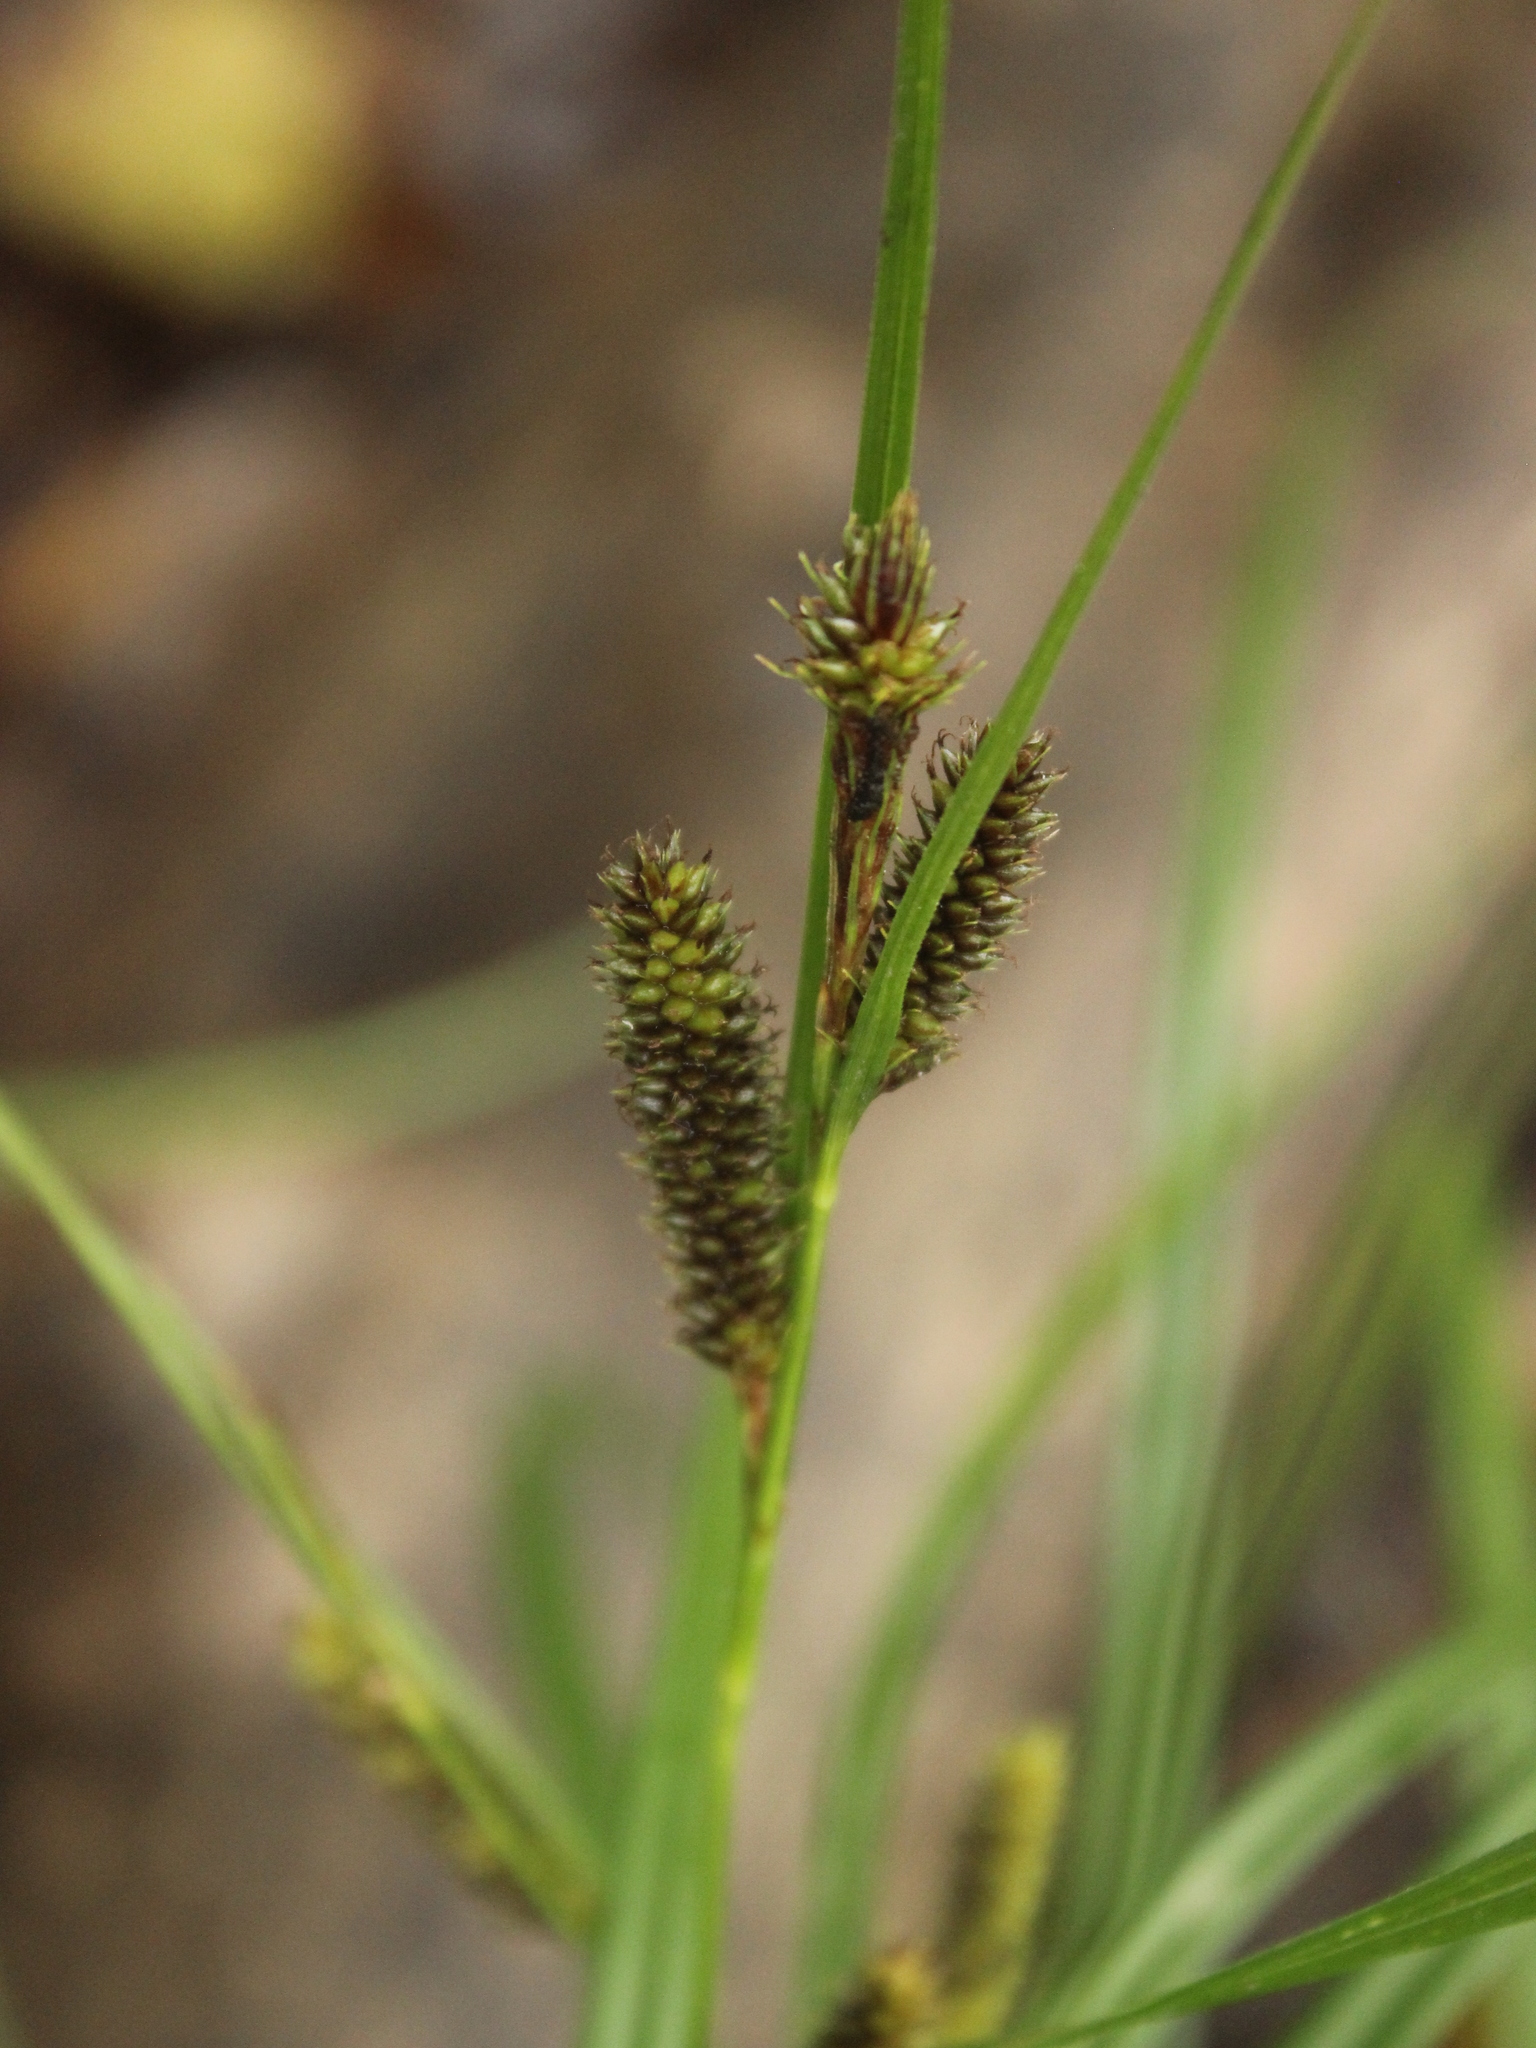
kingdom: Plantae
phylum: Tracheophyta
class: Liliopsida
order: Poales
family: Cyperaceae
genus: Carex
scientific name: Carex dissita
